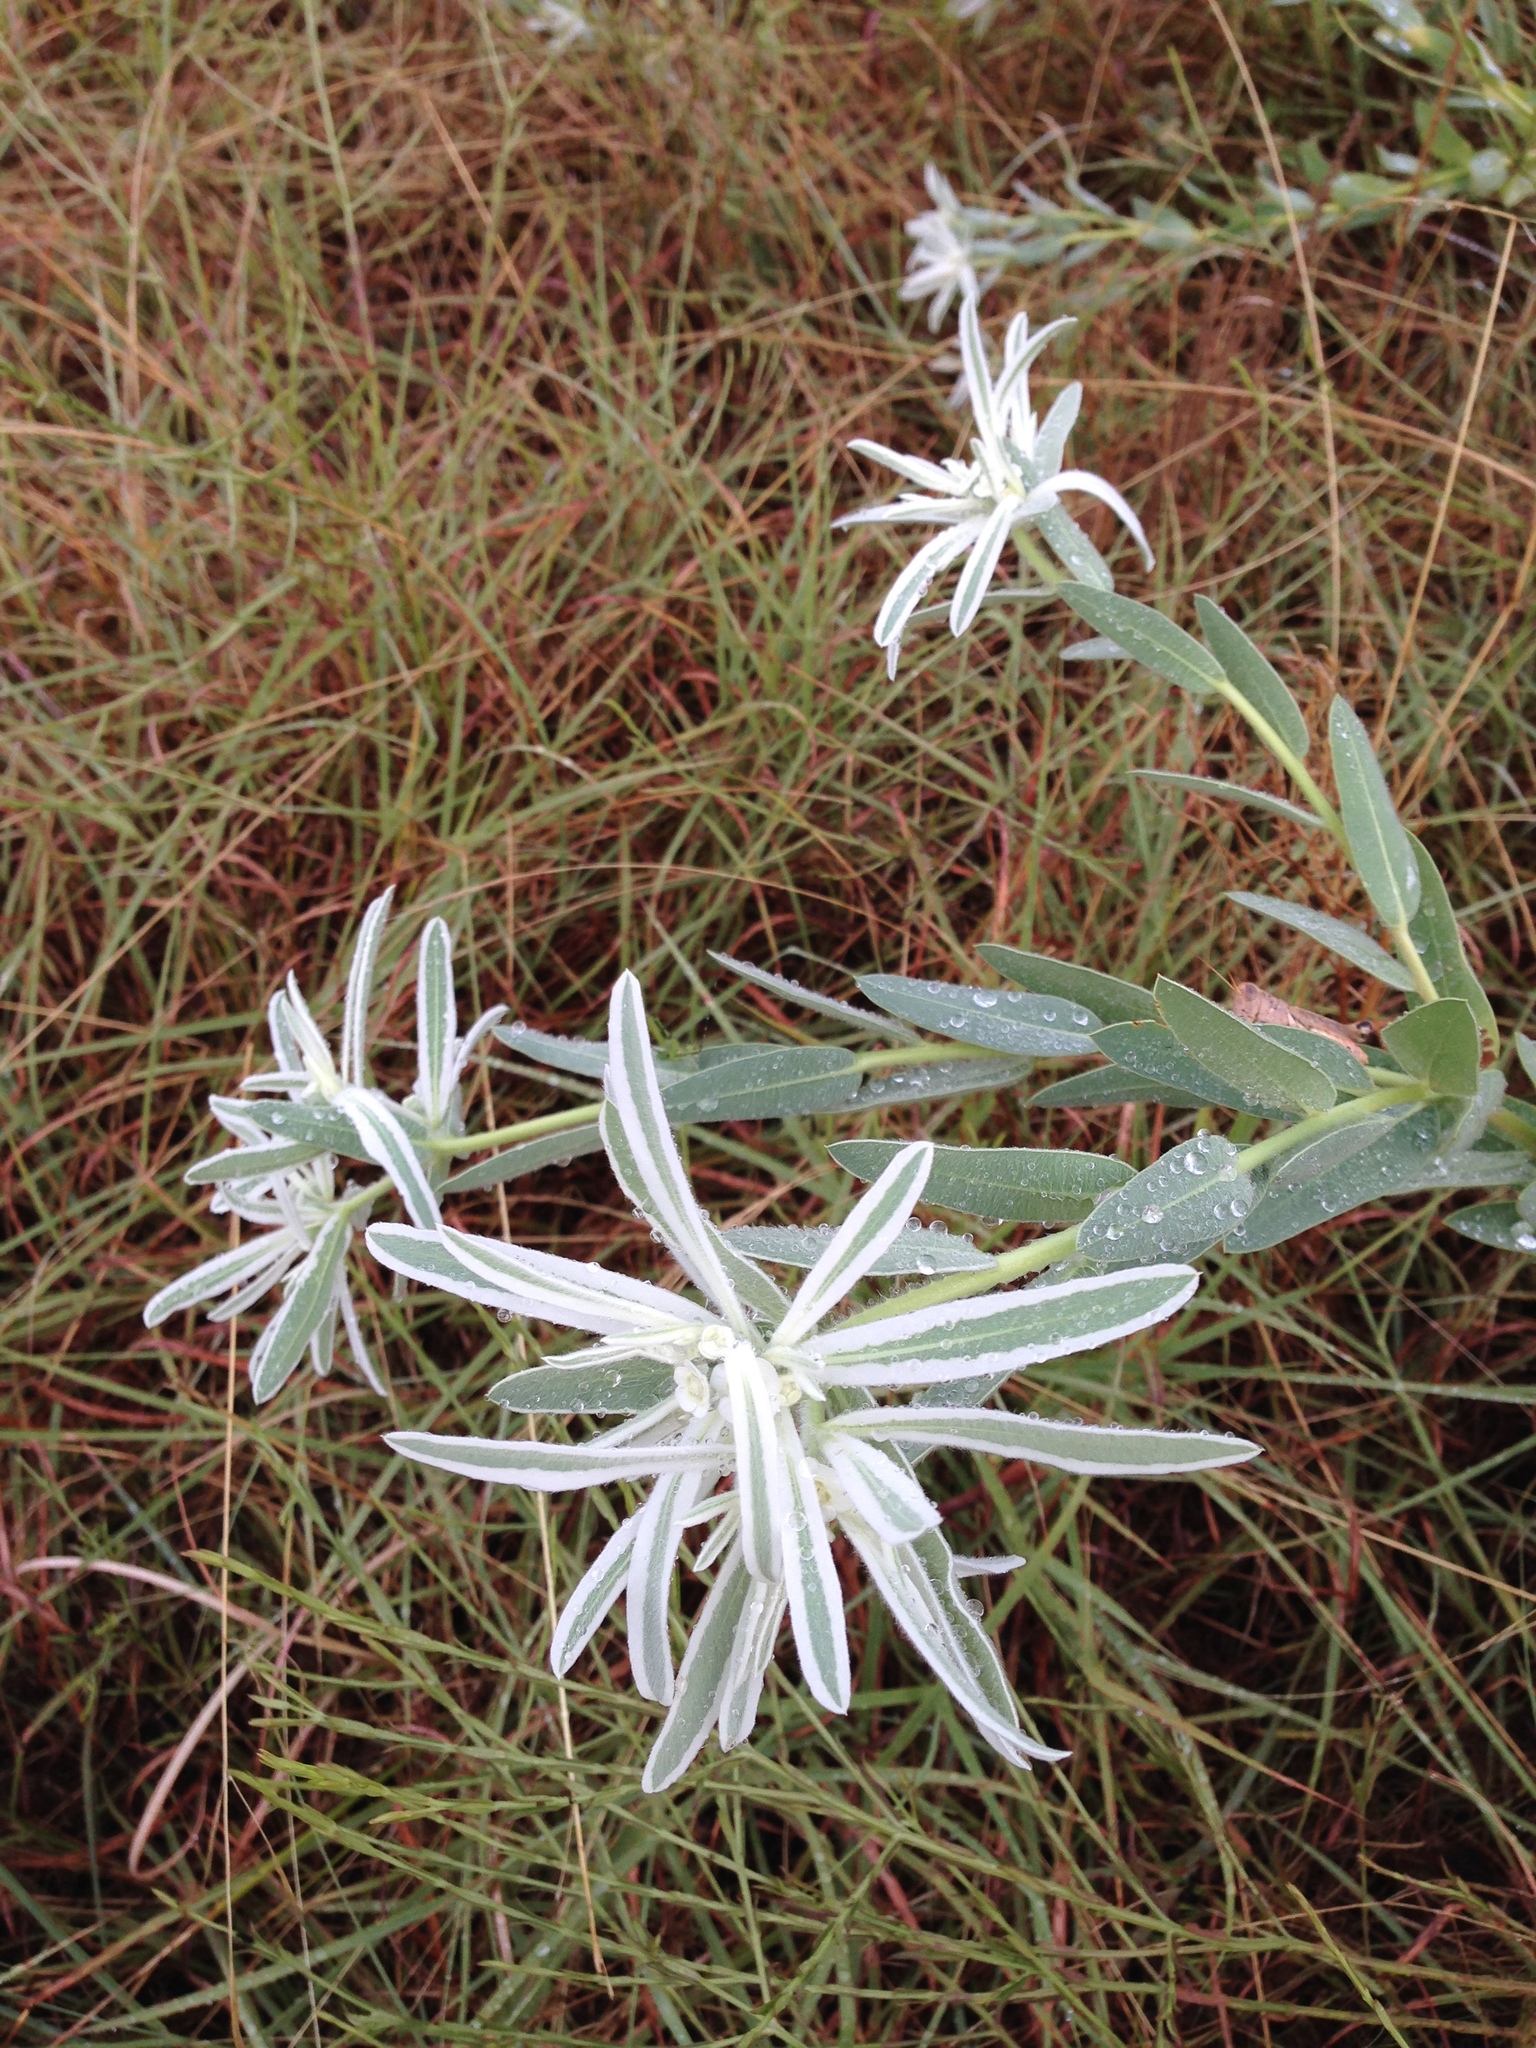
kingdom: Plantae
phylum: Tracheophyta
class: Magnoliopsida
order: Malpighiales
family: Euphorbiaceae
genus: Euphorbia
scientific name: Euphorbia bicolor
